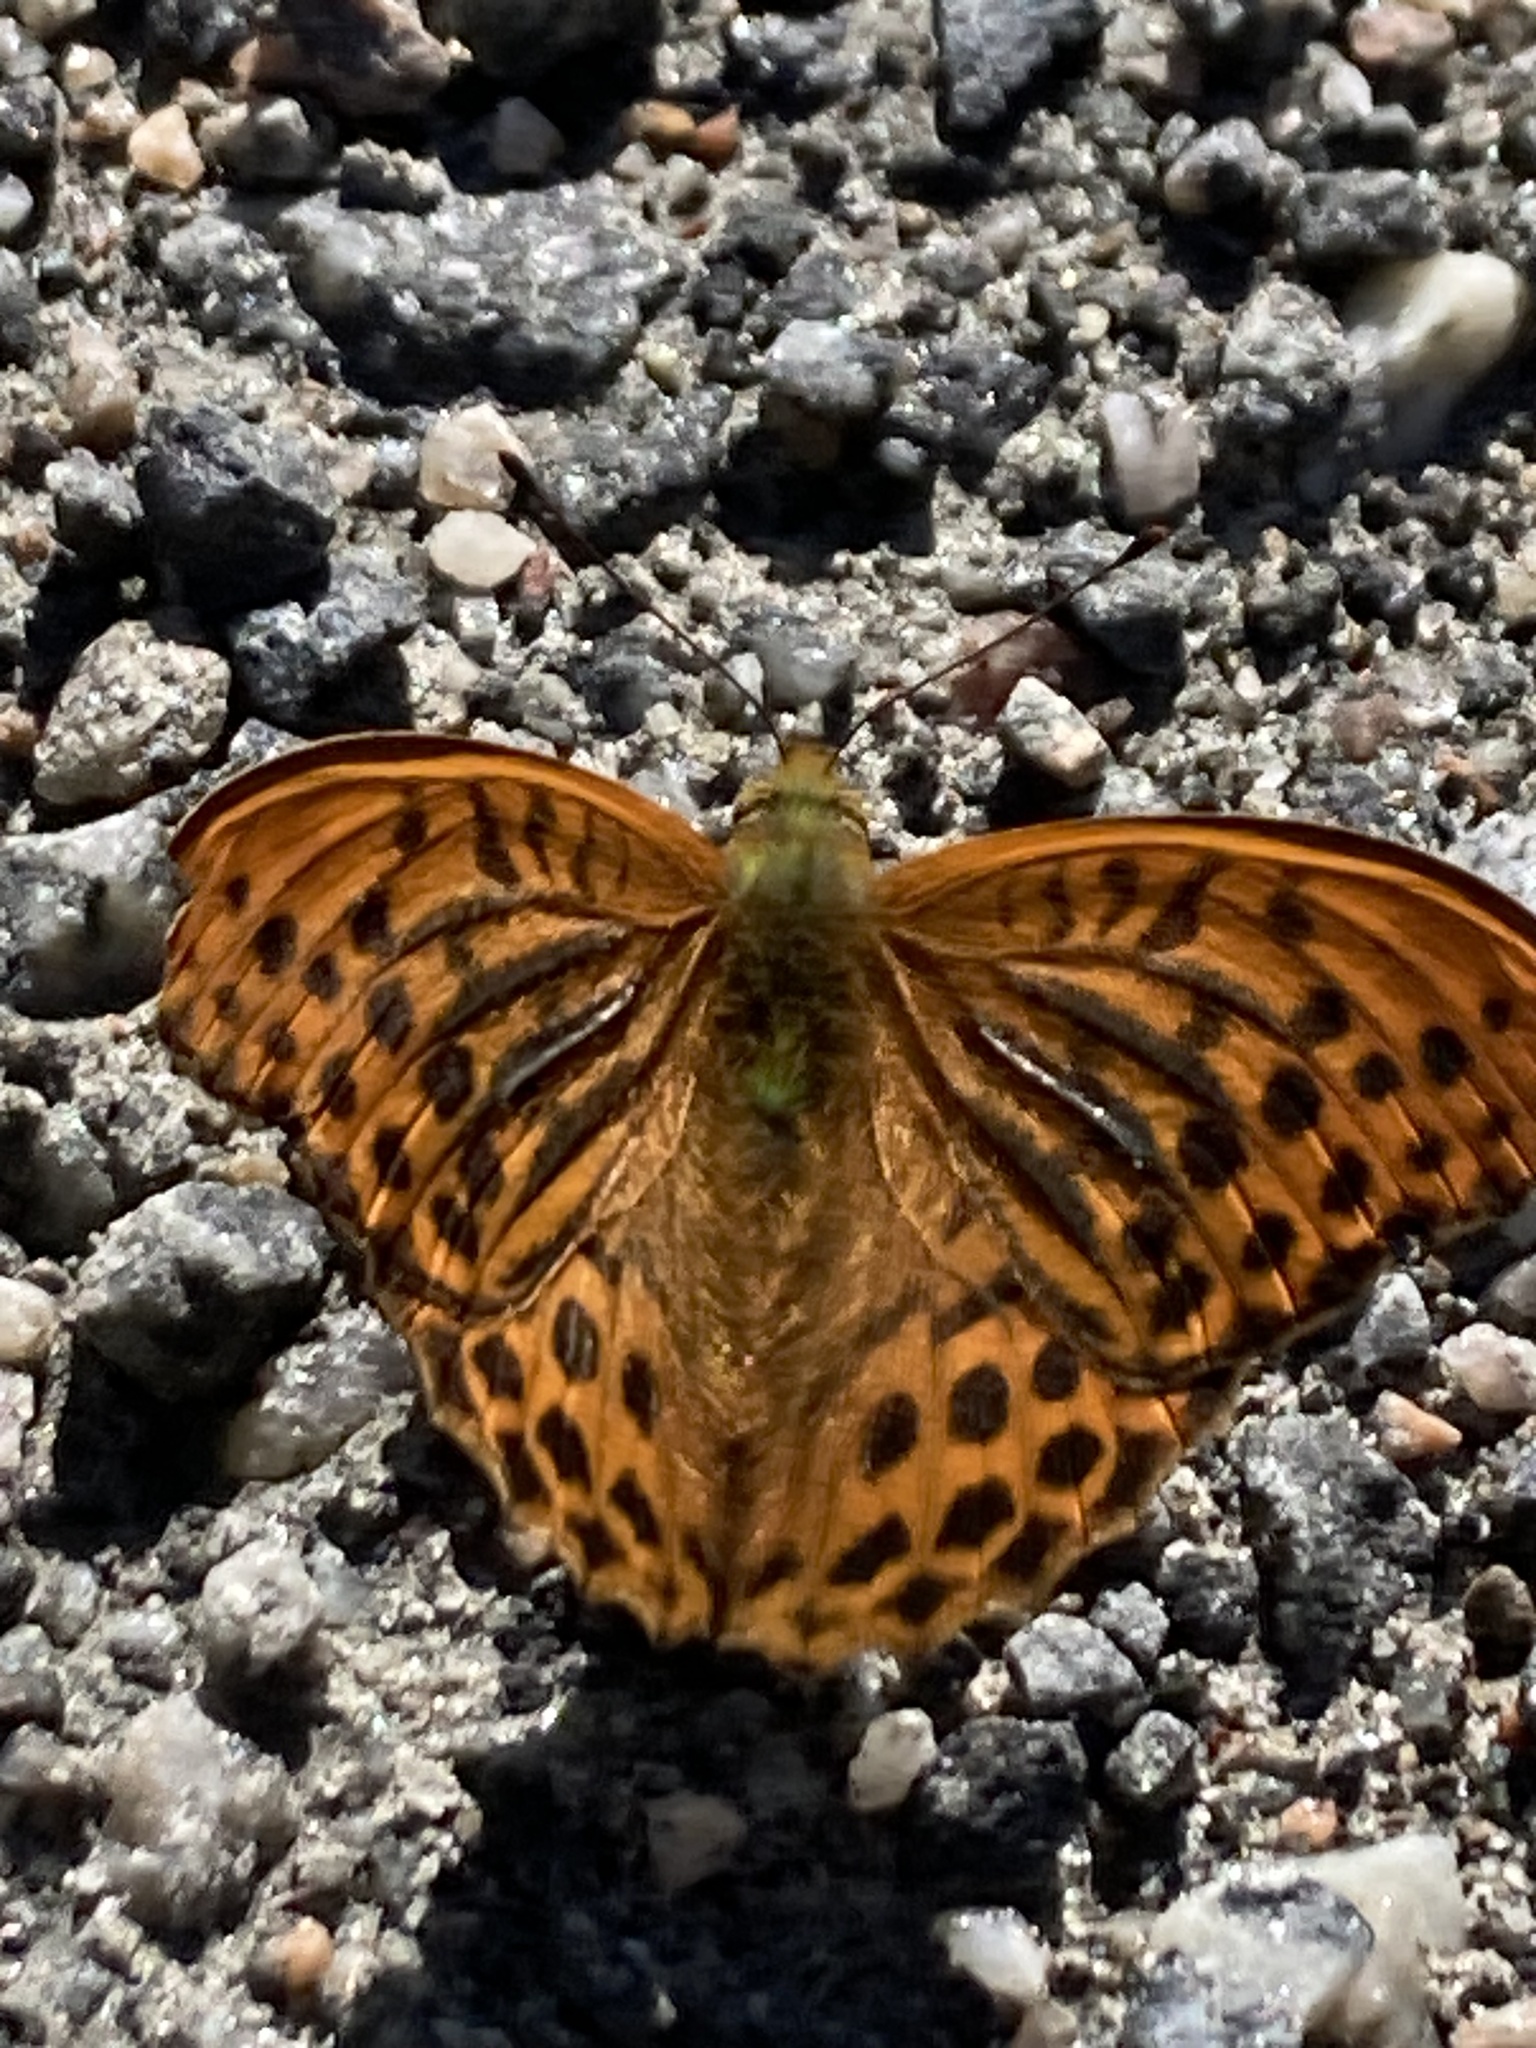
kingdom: Animalia
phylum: Arthropoda
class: Insecta
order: Lepidoptera
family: Nymphalidae
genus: Argynnis
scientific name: Argynnis paphia
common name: Silver-washed fritillary
